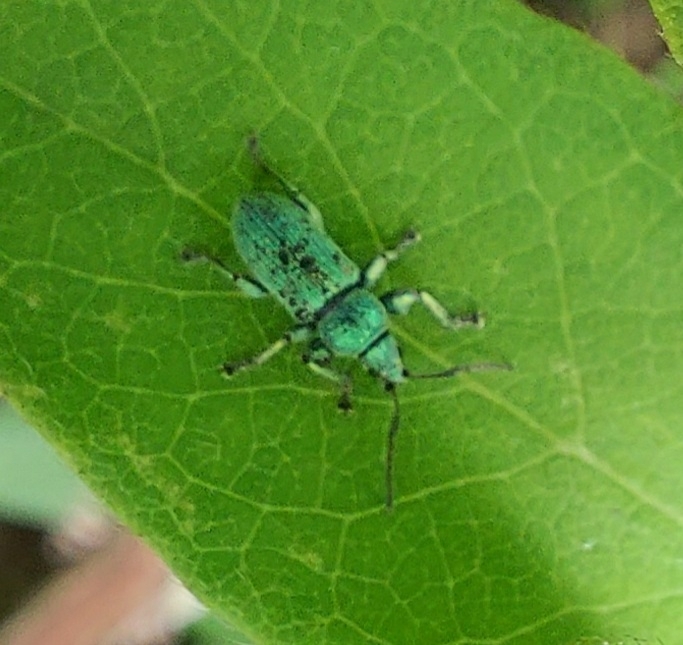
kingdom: Animalia
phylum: Arthropoda
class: Insecta
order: Coleoptera
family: Curculionidae
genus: Phyllobius
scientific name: Phyllobius maculicornis
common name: Green leaf weevil
